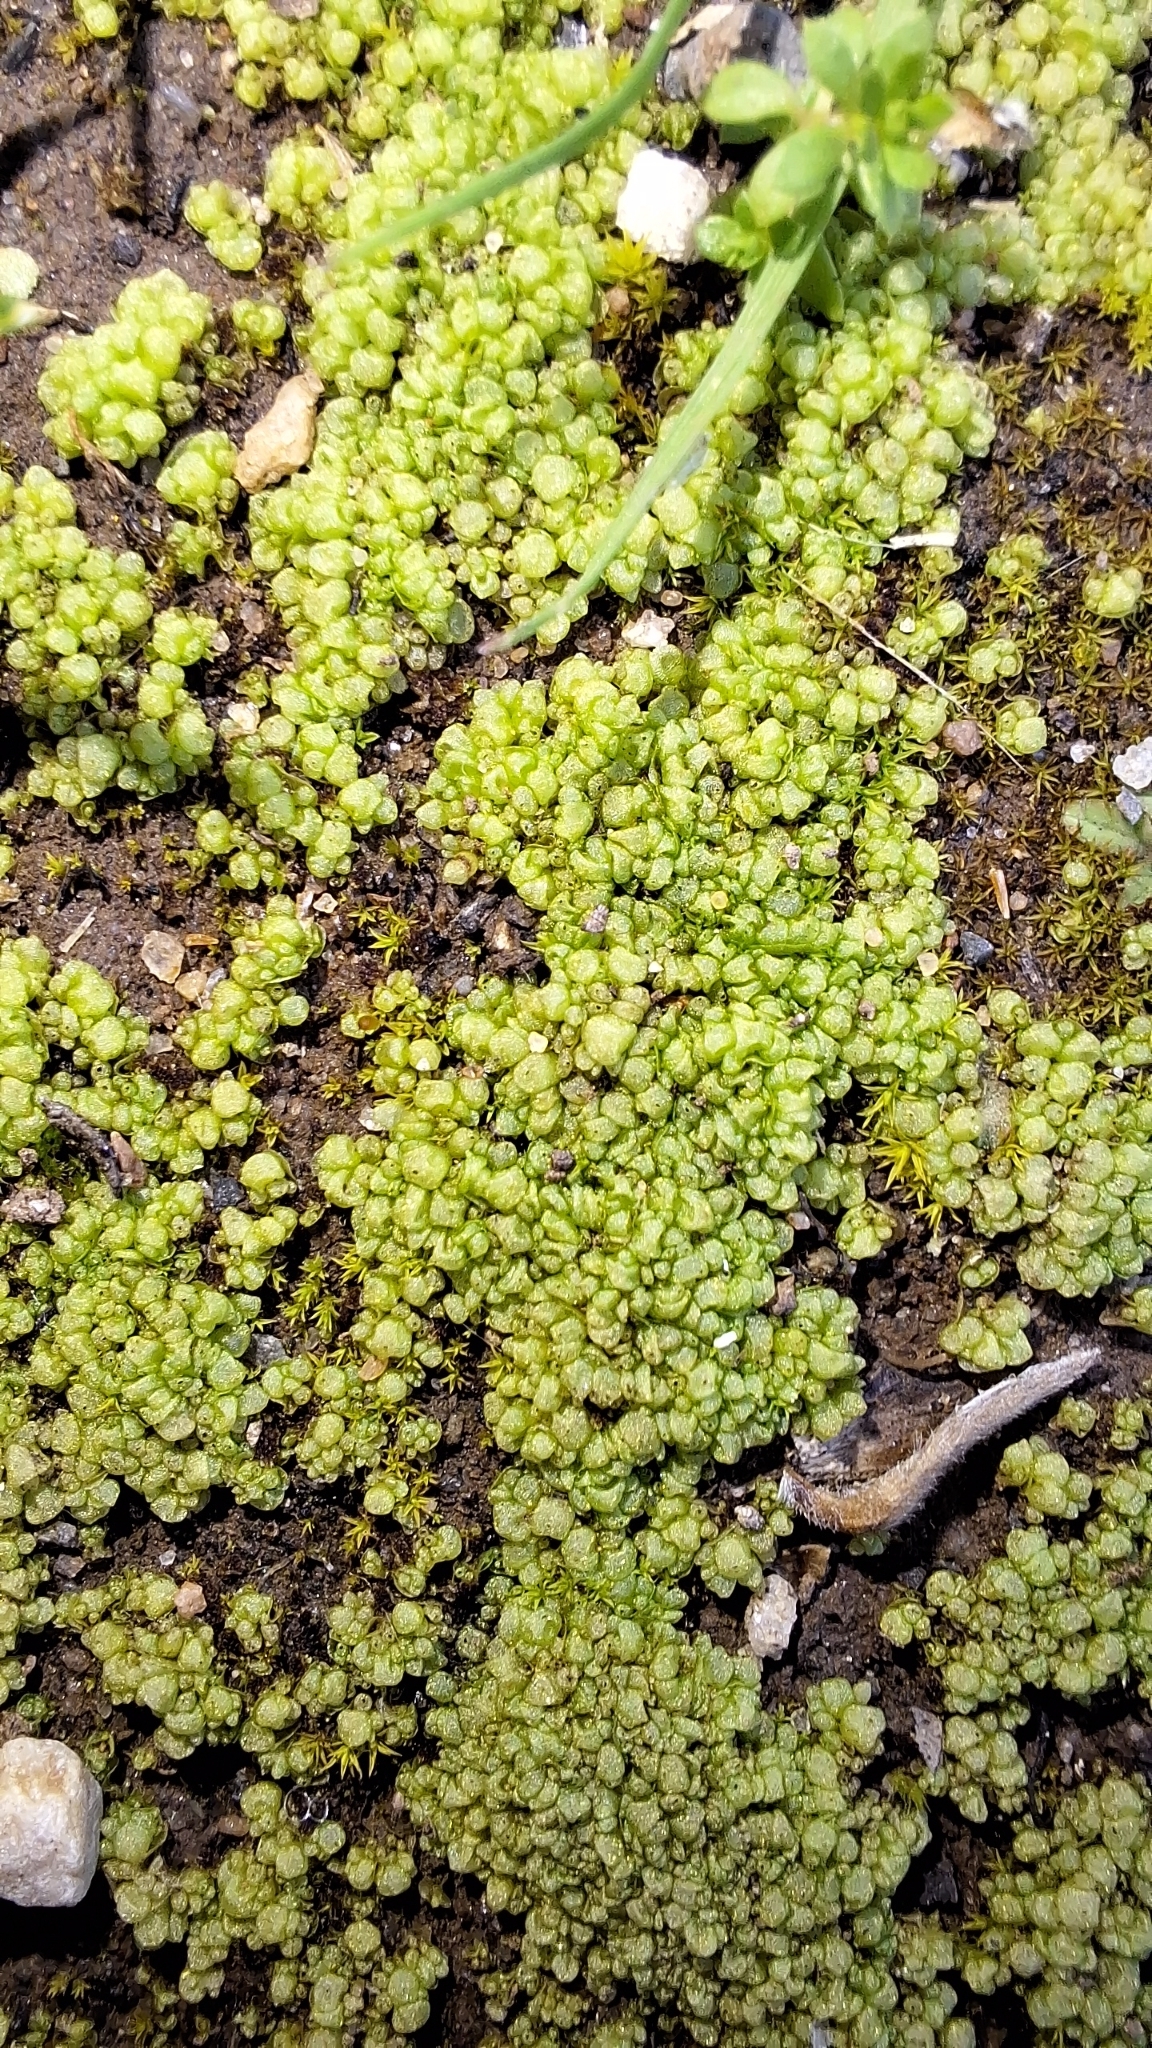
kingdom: Plantae
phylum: Marchantiophyta
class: Marchantiopsida
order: Sphaerocarpales
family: Sphaerocarpaceae
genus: Sphaerocarpos
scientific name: Sphaerocarpos texanus
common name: Texas balloonwort
